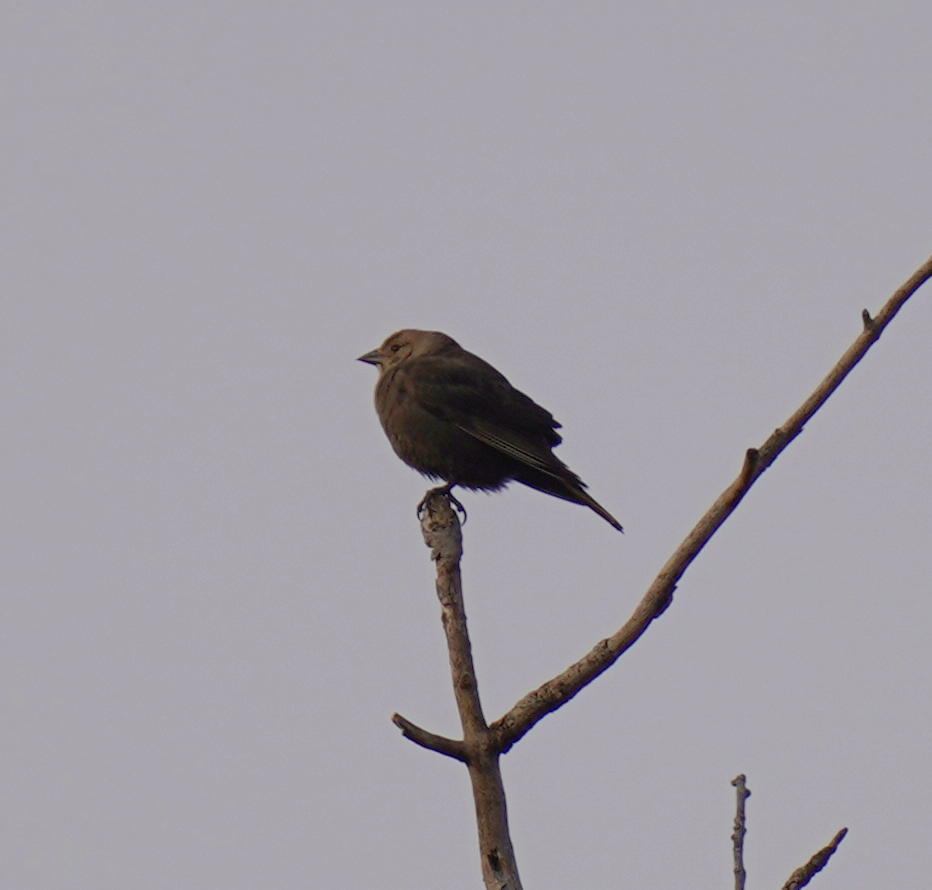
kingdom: Animalia
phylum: Chordata
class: Aves
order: Passeriformes
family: Icteridae
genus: Molothrus
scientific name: Molothrus ater
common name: Brown-headed cowbird
